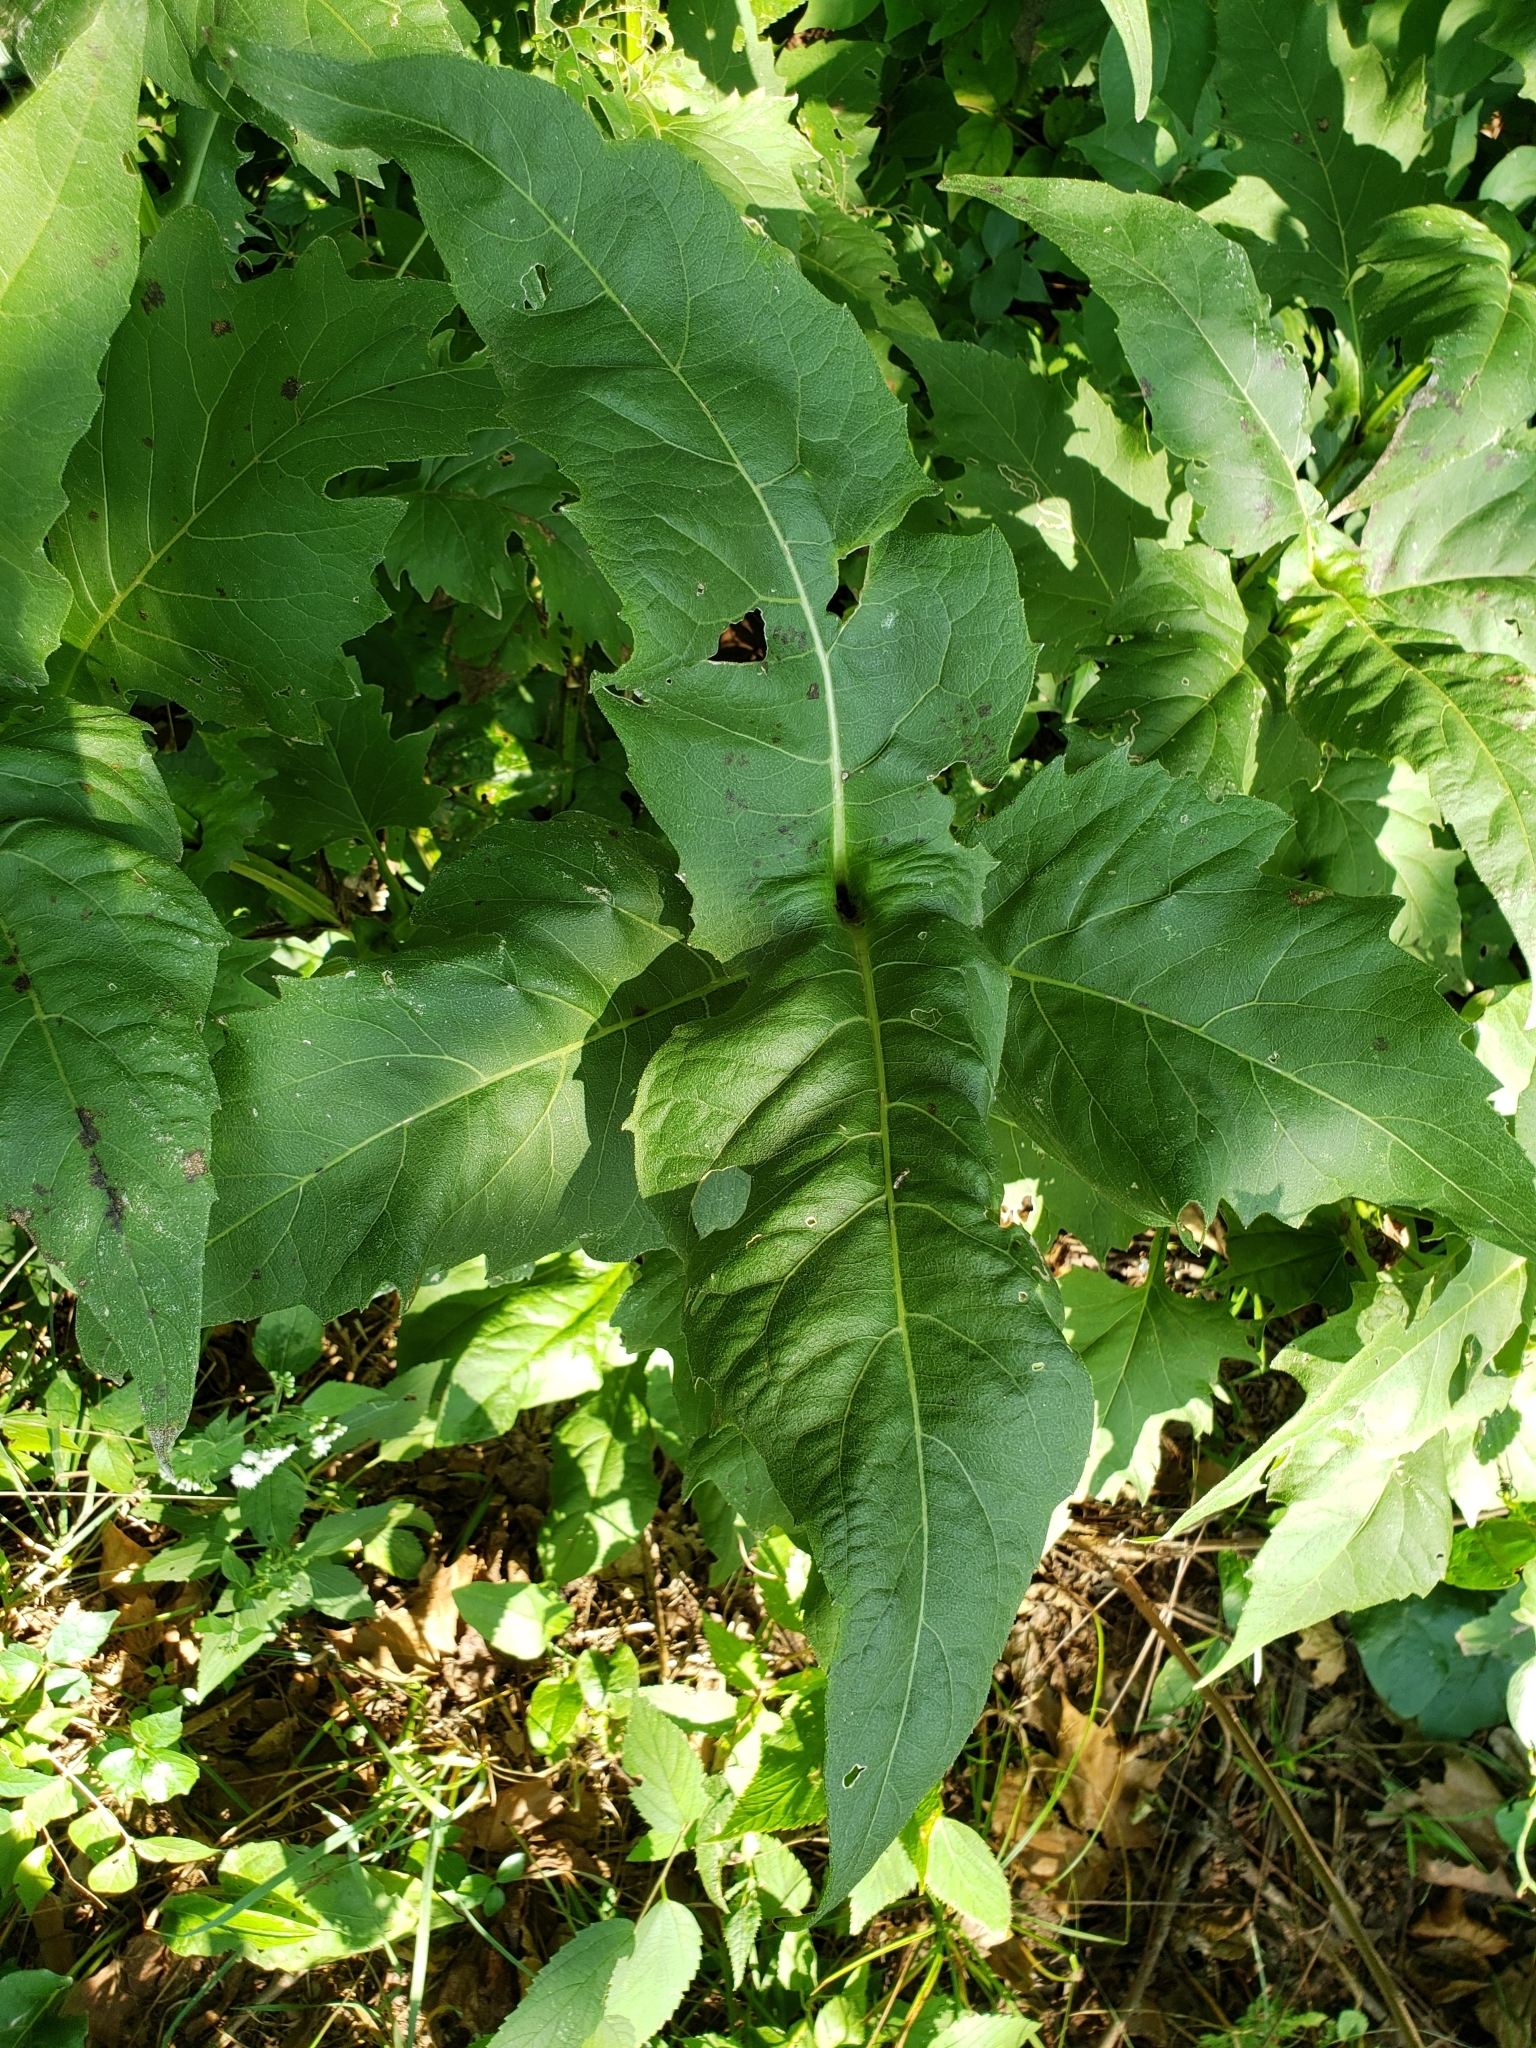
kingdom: Plantae
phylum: Tracheophyta
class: Magnoliopsida
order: Asterales
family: Asteraceae
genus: Silphium
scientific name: Silphium perfoliatum
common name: Cup-plant
